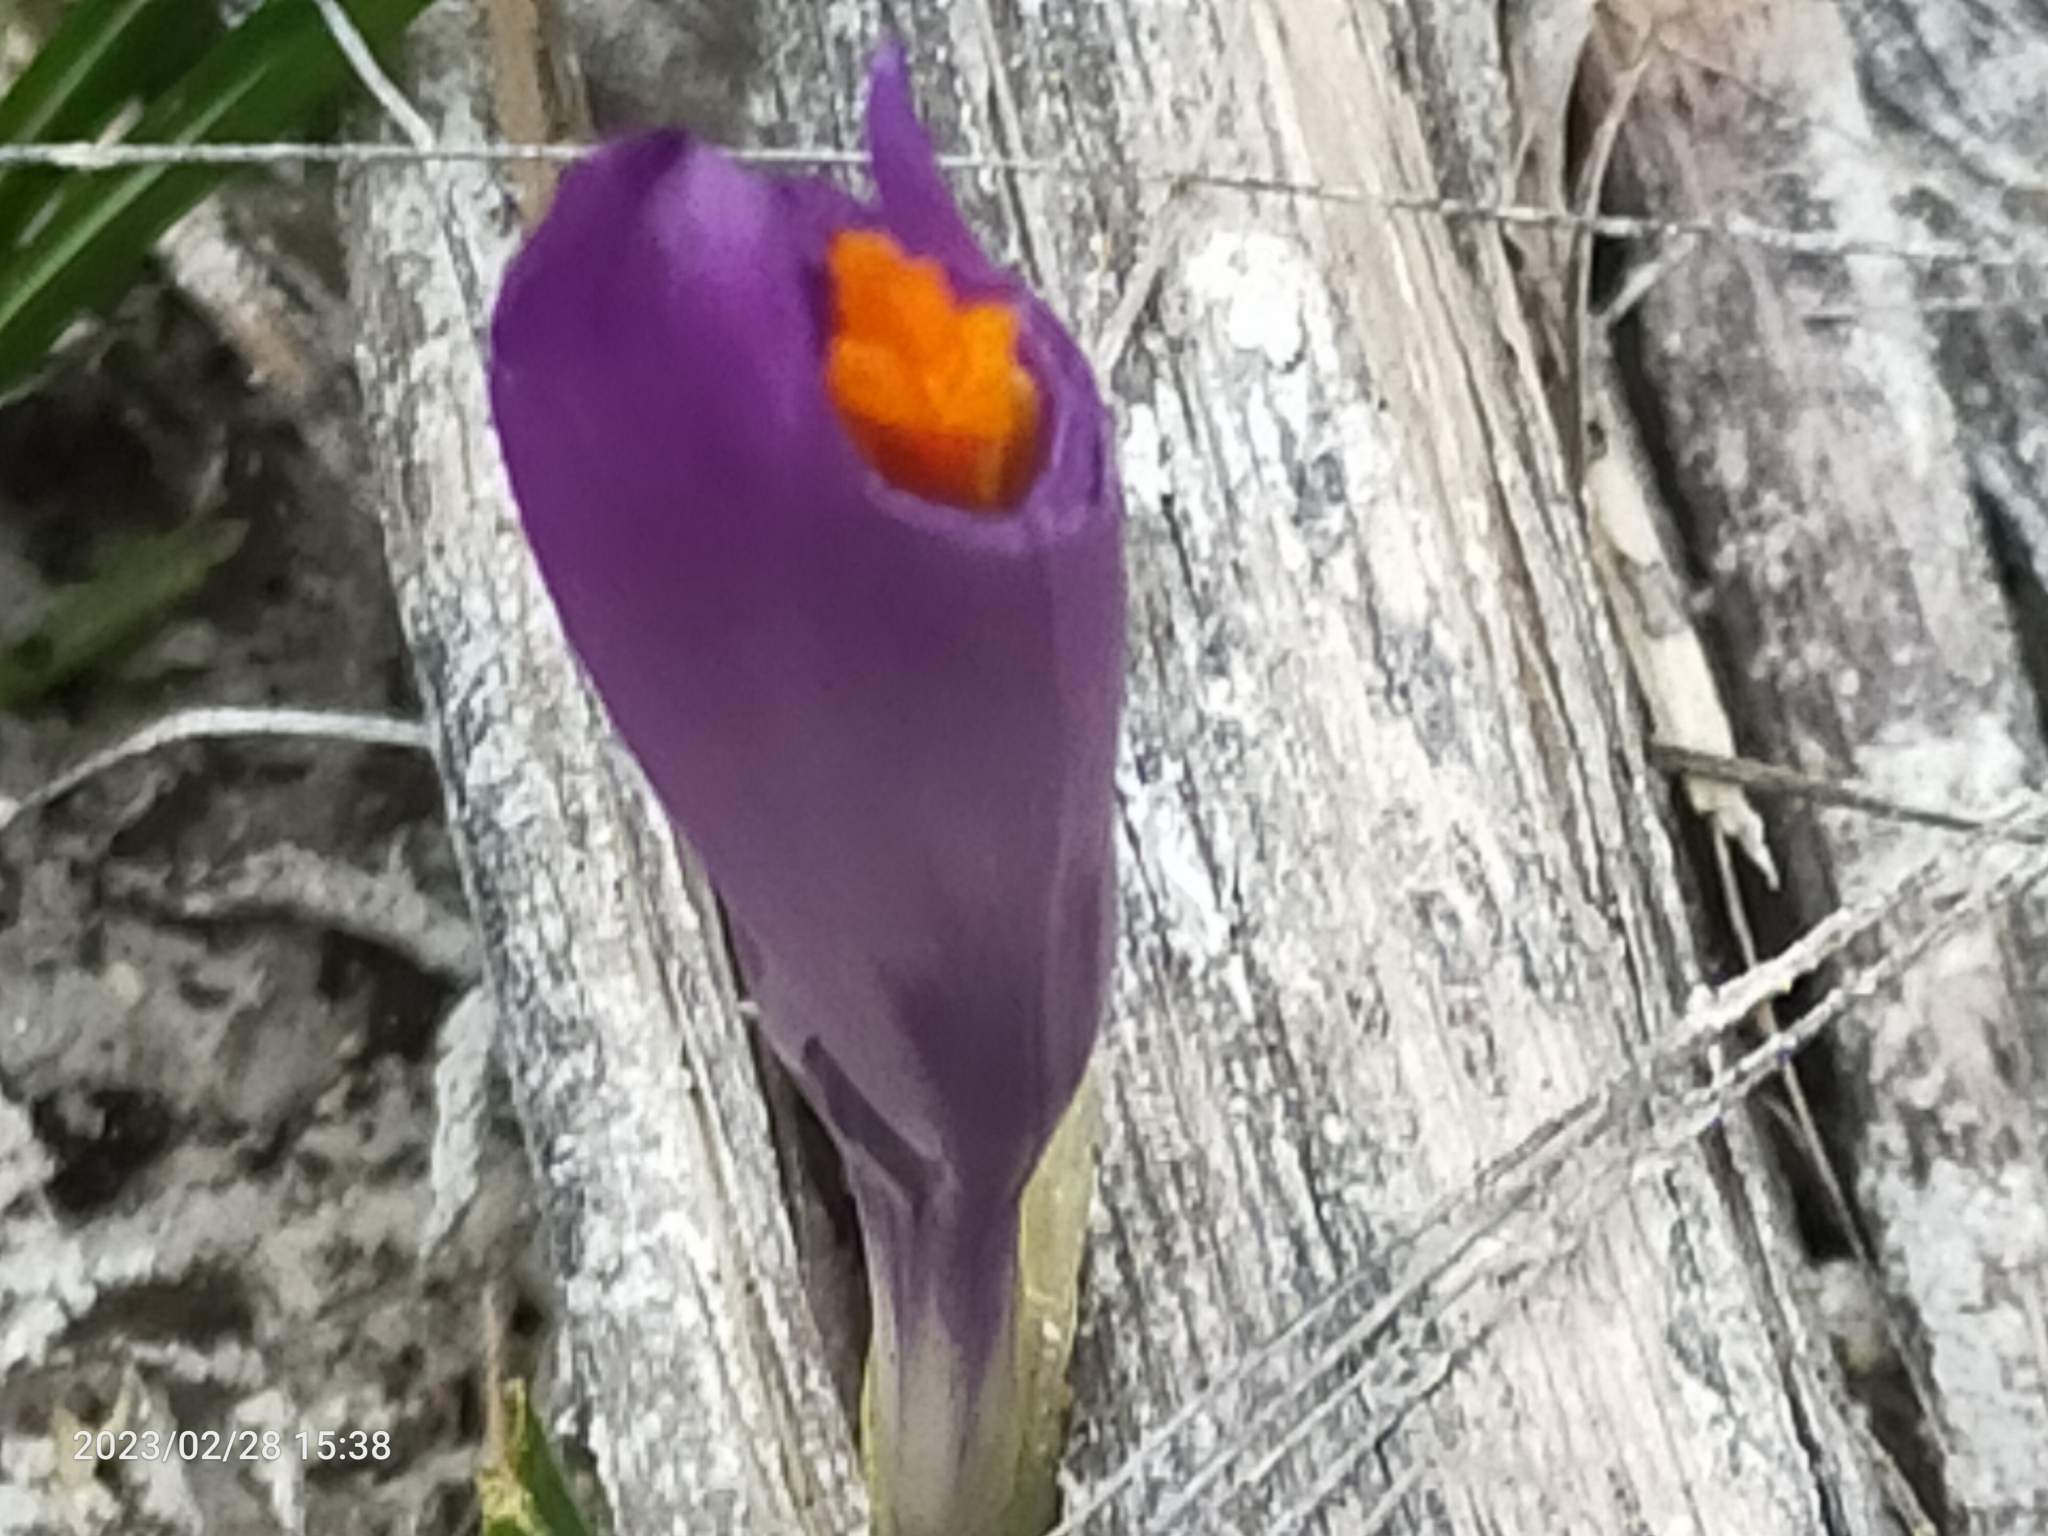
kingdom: Plantae
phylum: Tracheophyta
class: Liliopsida
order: Asparagales
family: Iridaceae
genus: Crocus
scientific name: Crocus neapolitanus
